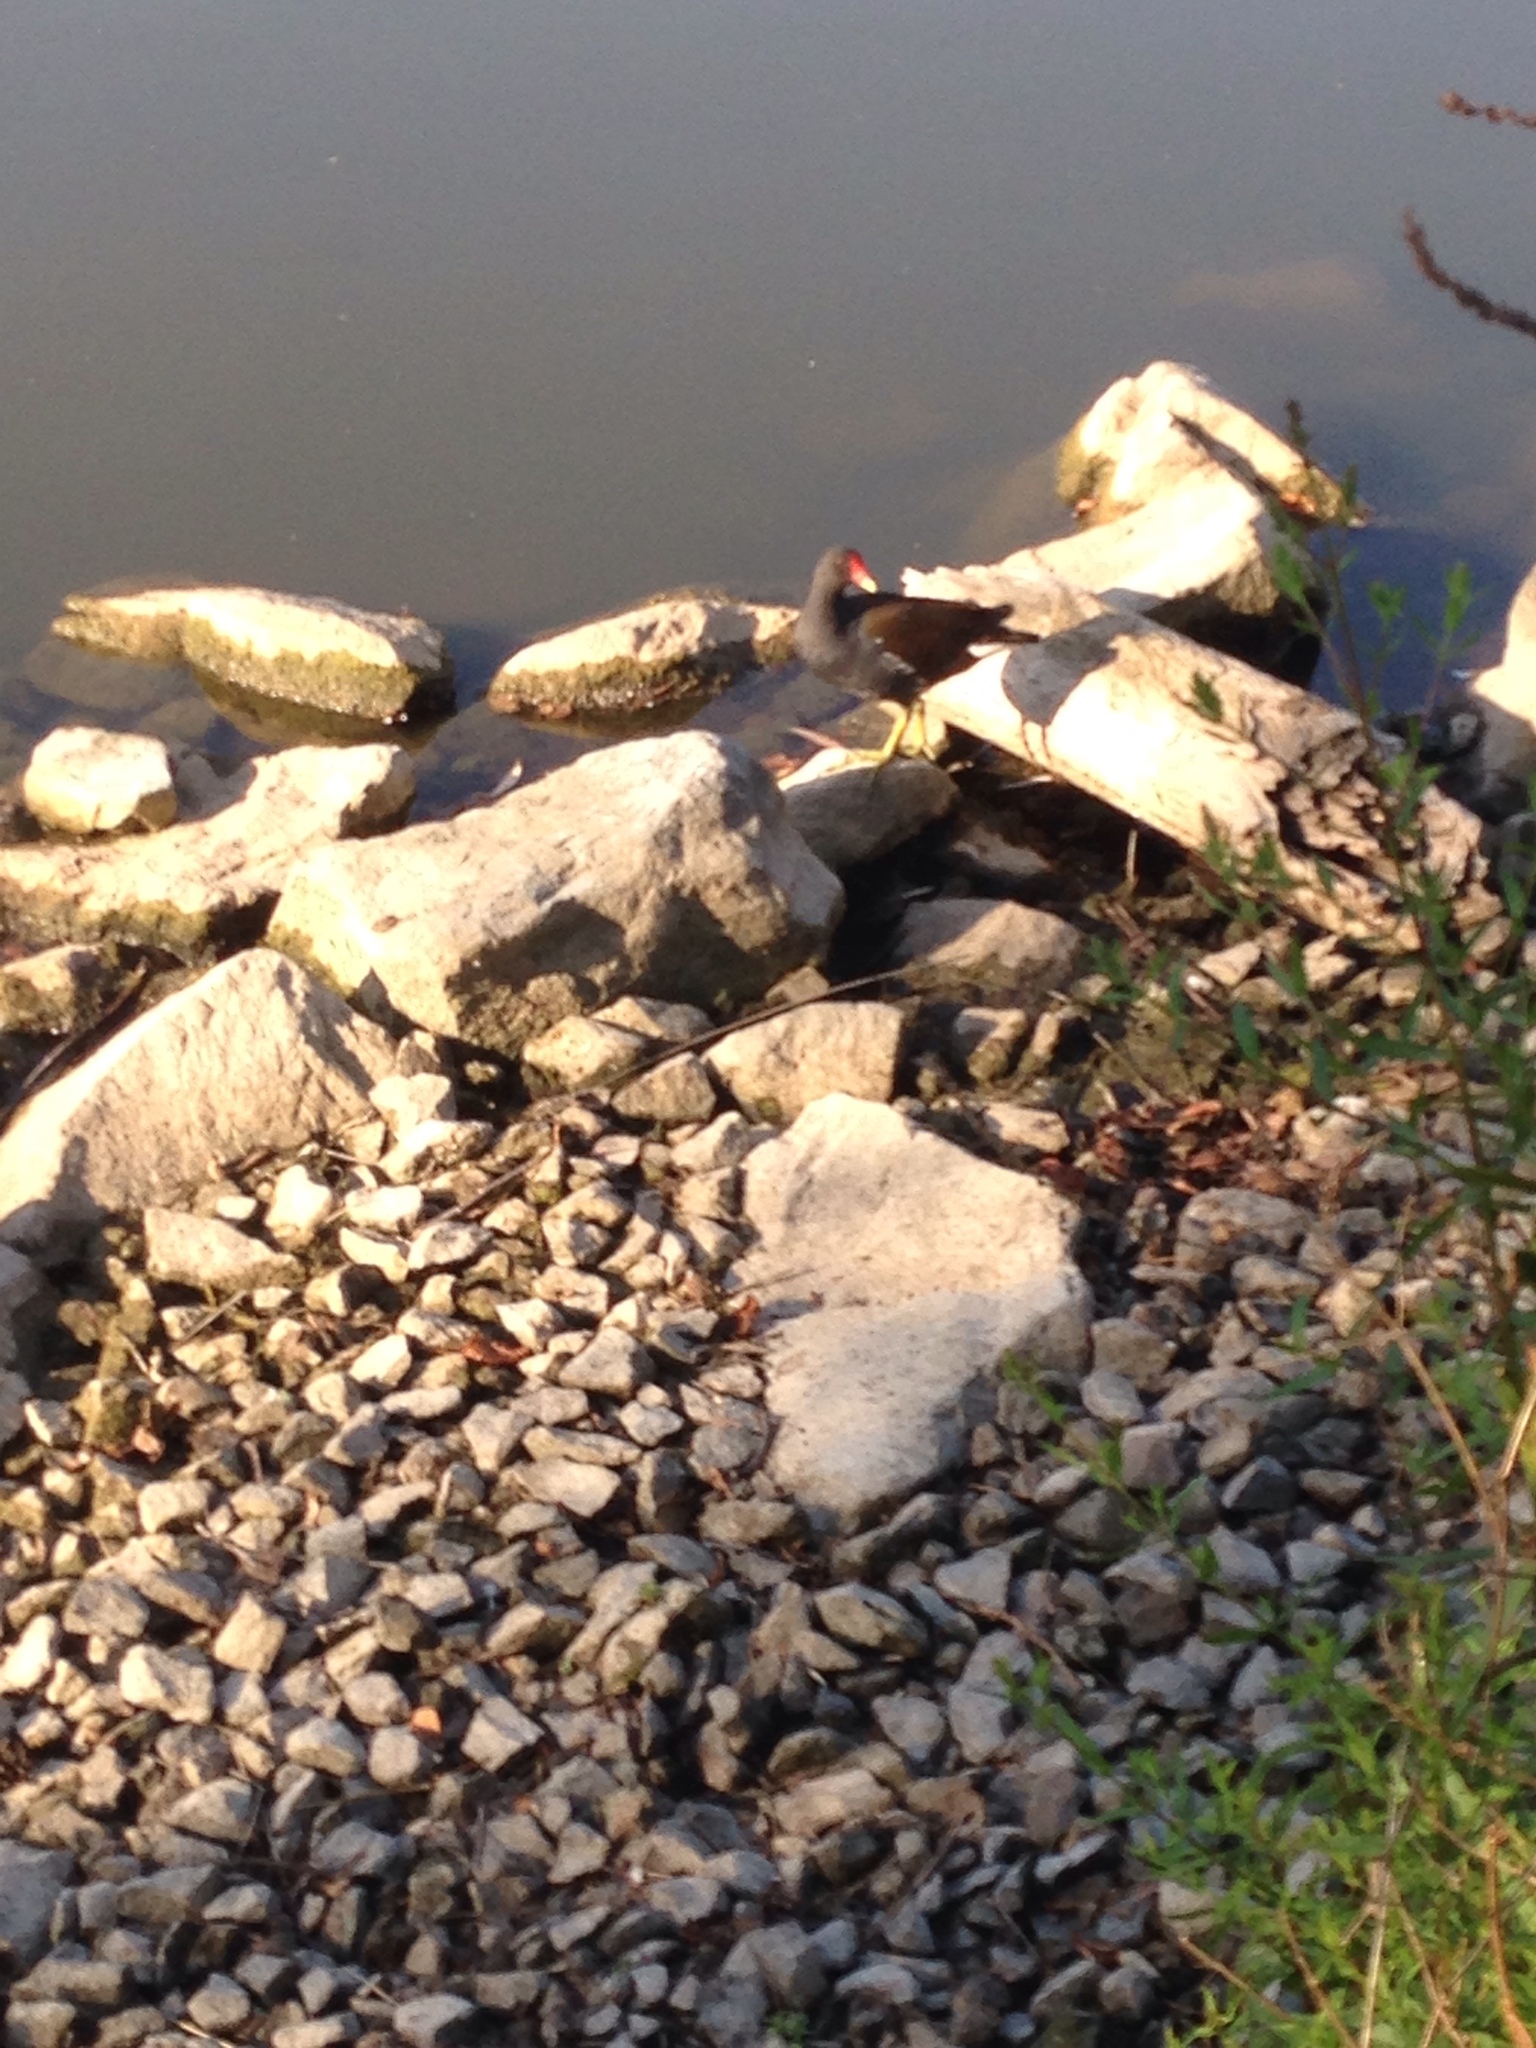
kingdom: Animalia
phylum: Chordata
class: Aves
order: Gruiformes
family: Rallidae
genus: Gallinula
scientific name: Gallinula chloropus
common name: Common moorhen
